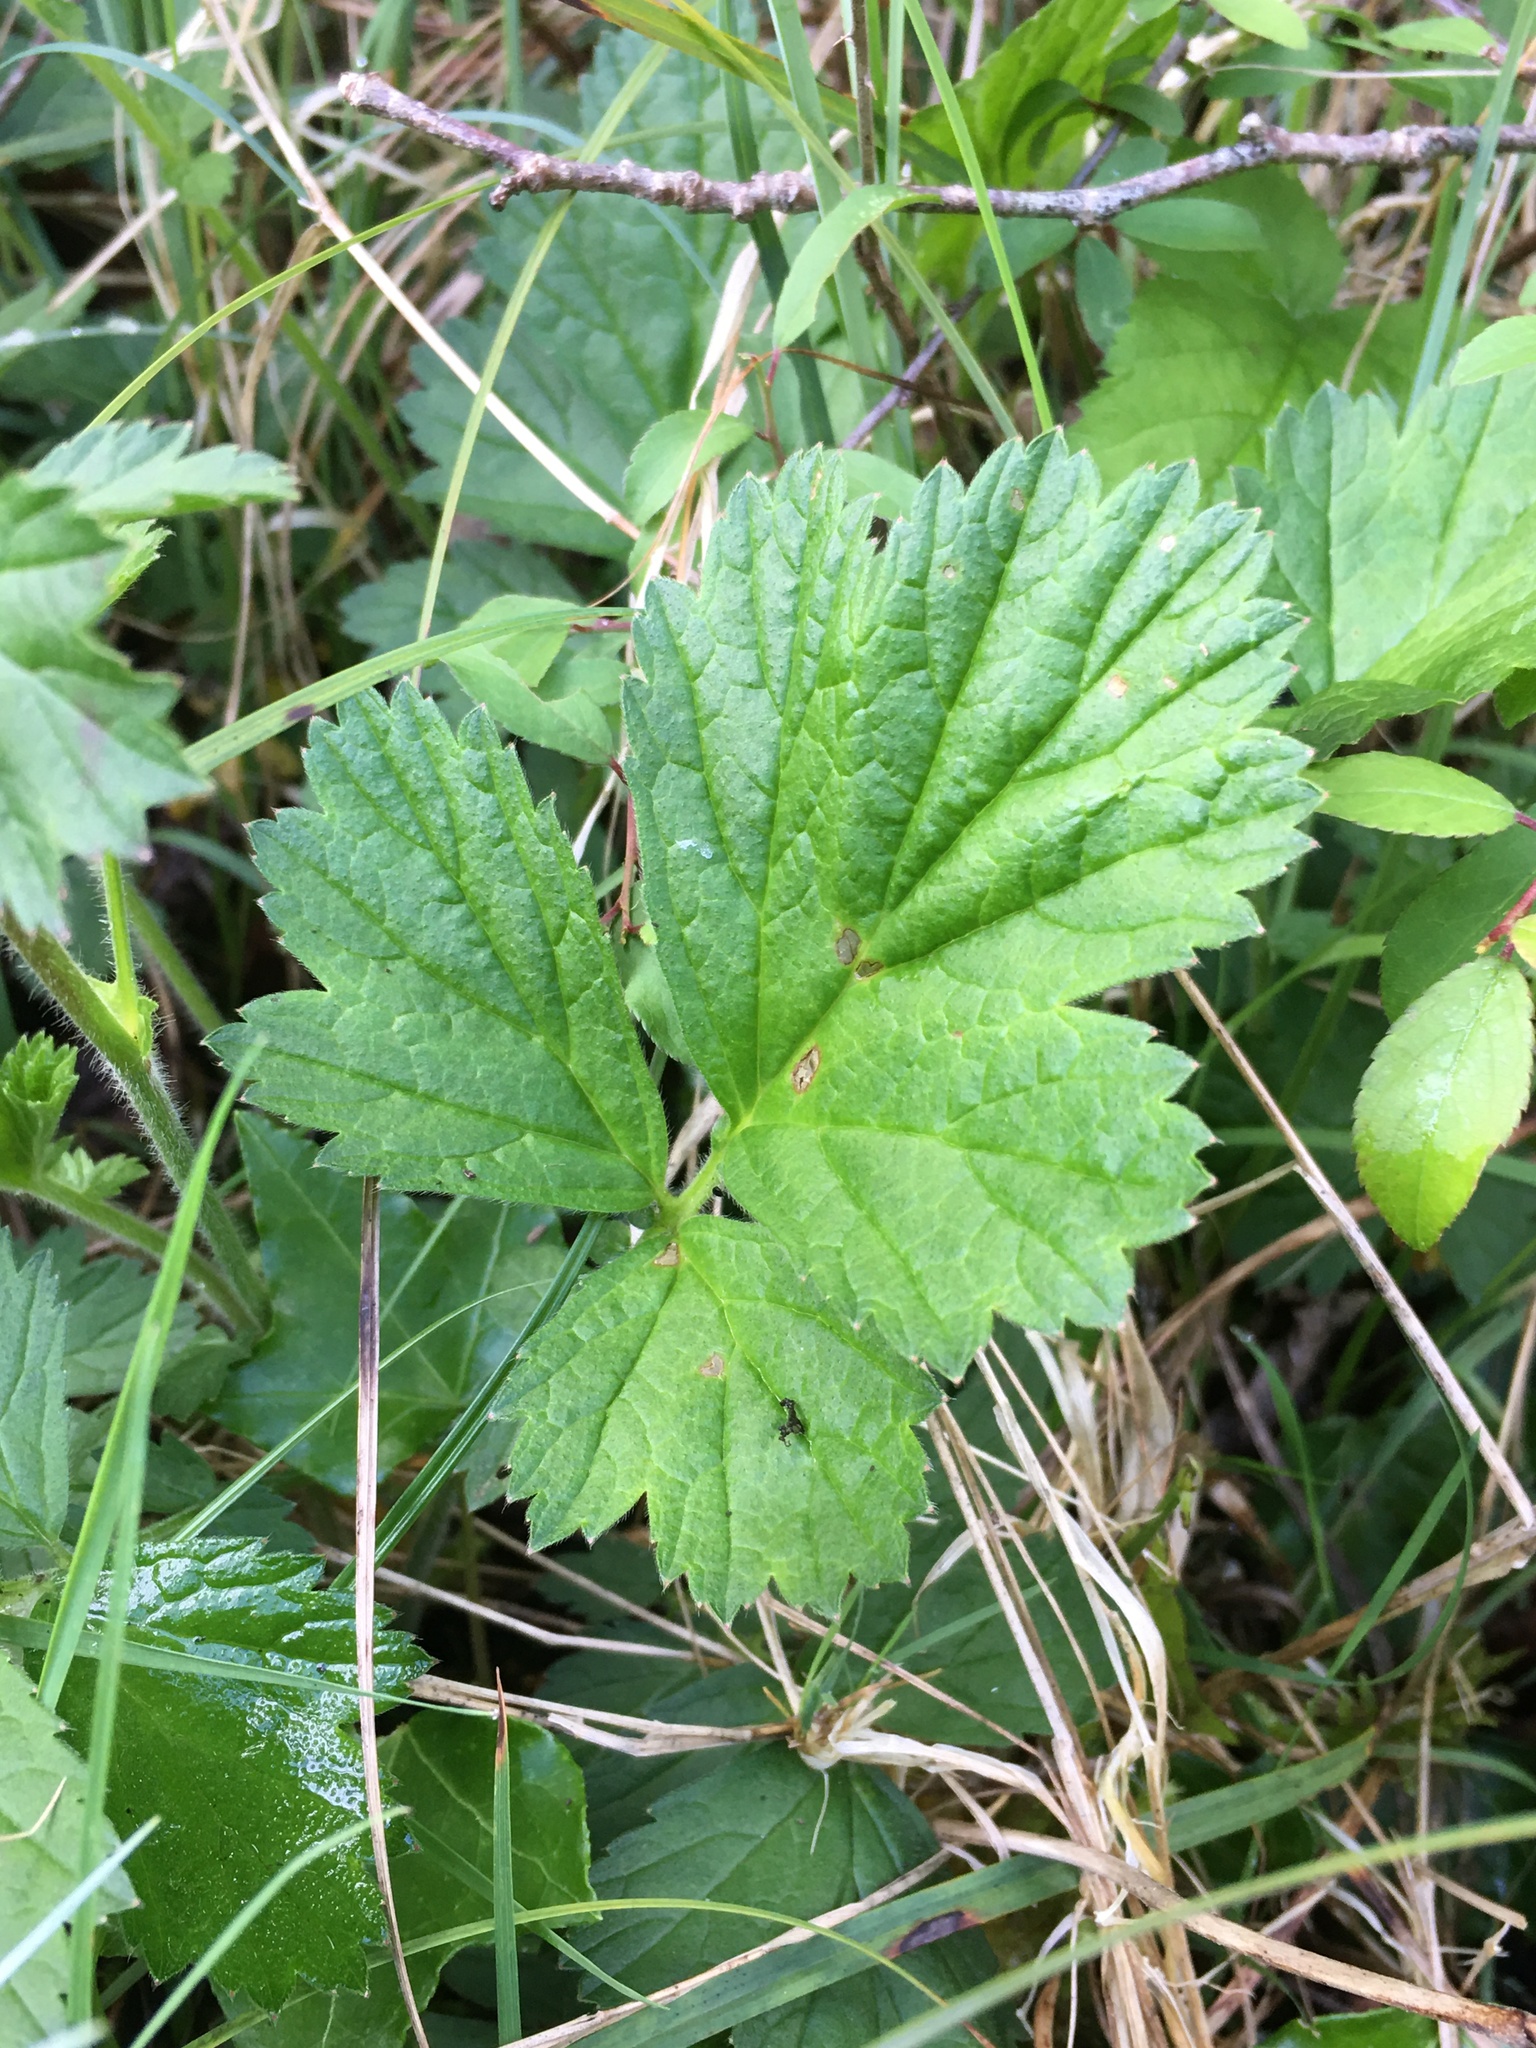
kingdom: Plantae
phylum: Tracheophyta
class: Magnoliopsida
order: Rosales
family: Rosaceae
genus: Geum
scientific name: Geum rivale
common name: Water avens
